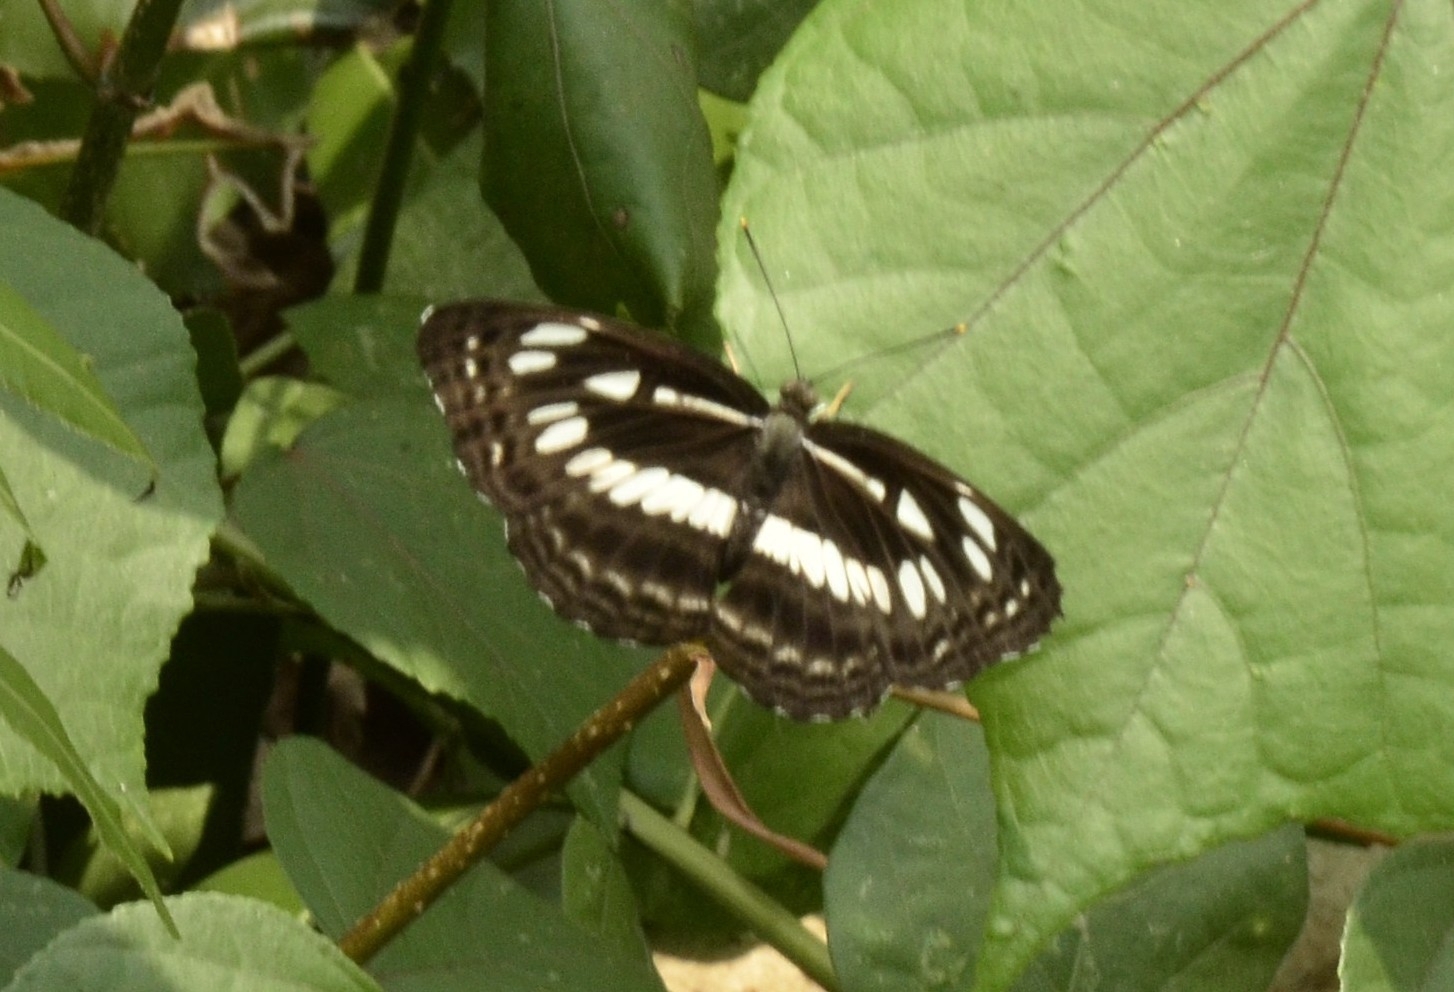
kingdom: Animalia
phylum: Arthropoda
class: Insecta
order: Lepidoptera
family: Nymphalidae
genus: Neptis
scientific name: Neptis jumbah
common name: Chestnut-streaked sailer
